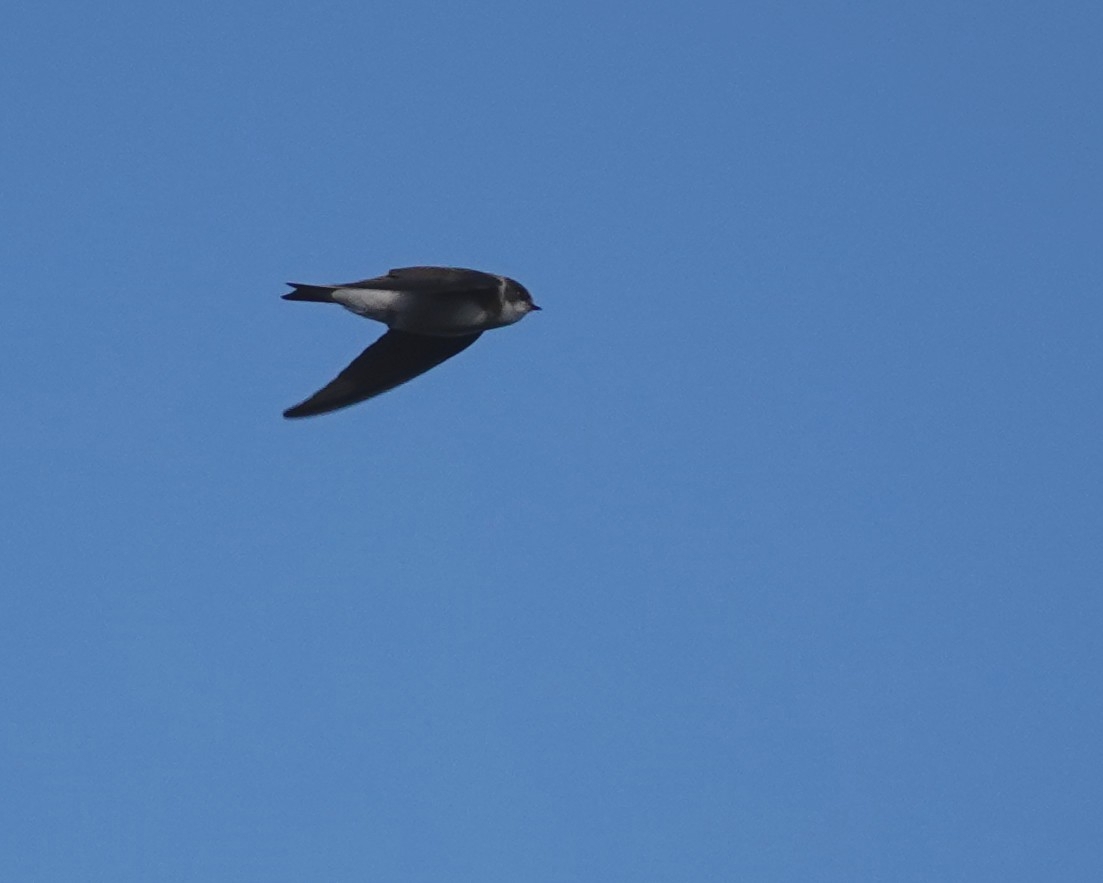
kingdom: Animalia
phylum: Chordata
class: Aves
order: Passeriformes
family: Hirundinidae
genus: Riparia
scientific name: Riparia riparia
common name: Sand martin
